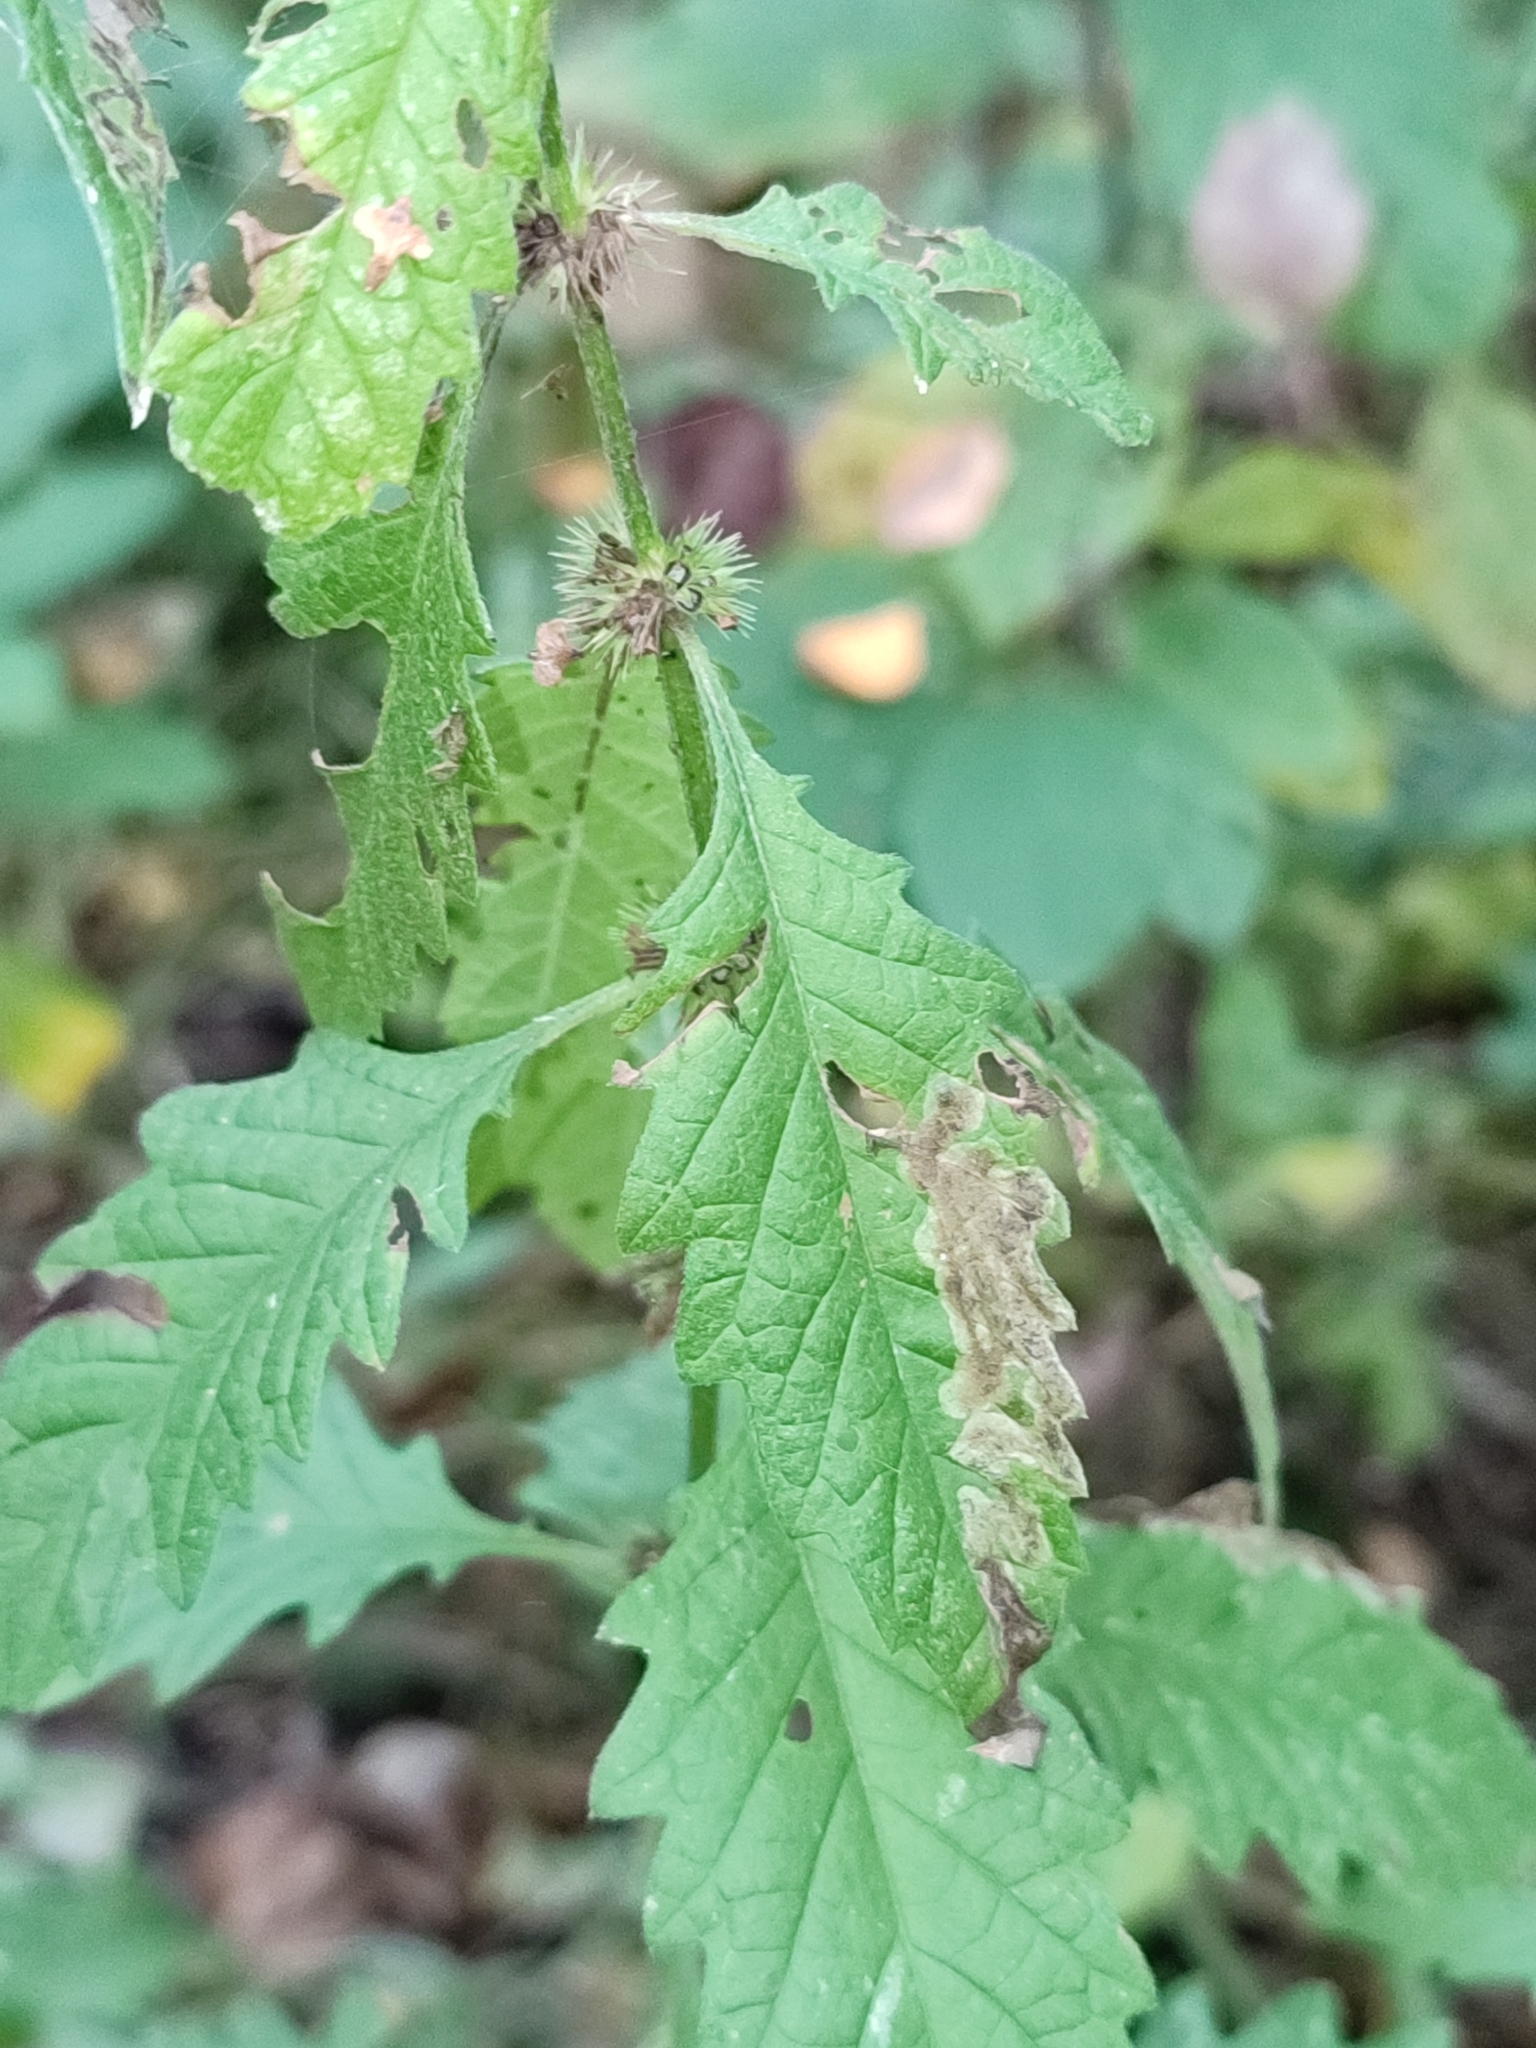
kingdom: Plantae
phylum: Tracheophyta
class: Magnoliopsida
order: Lamiales
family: Lamiaceae
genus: Lycopus
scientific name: Lycopus europaeus
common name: European bugleweed
